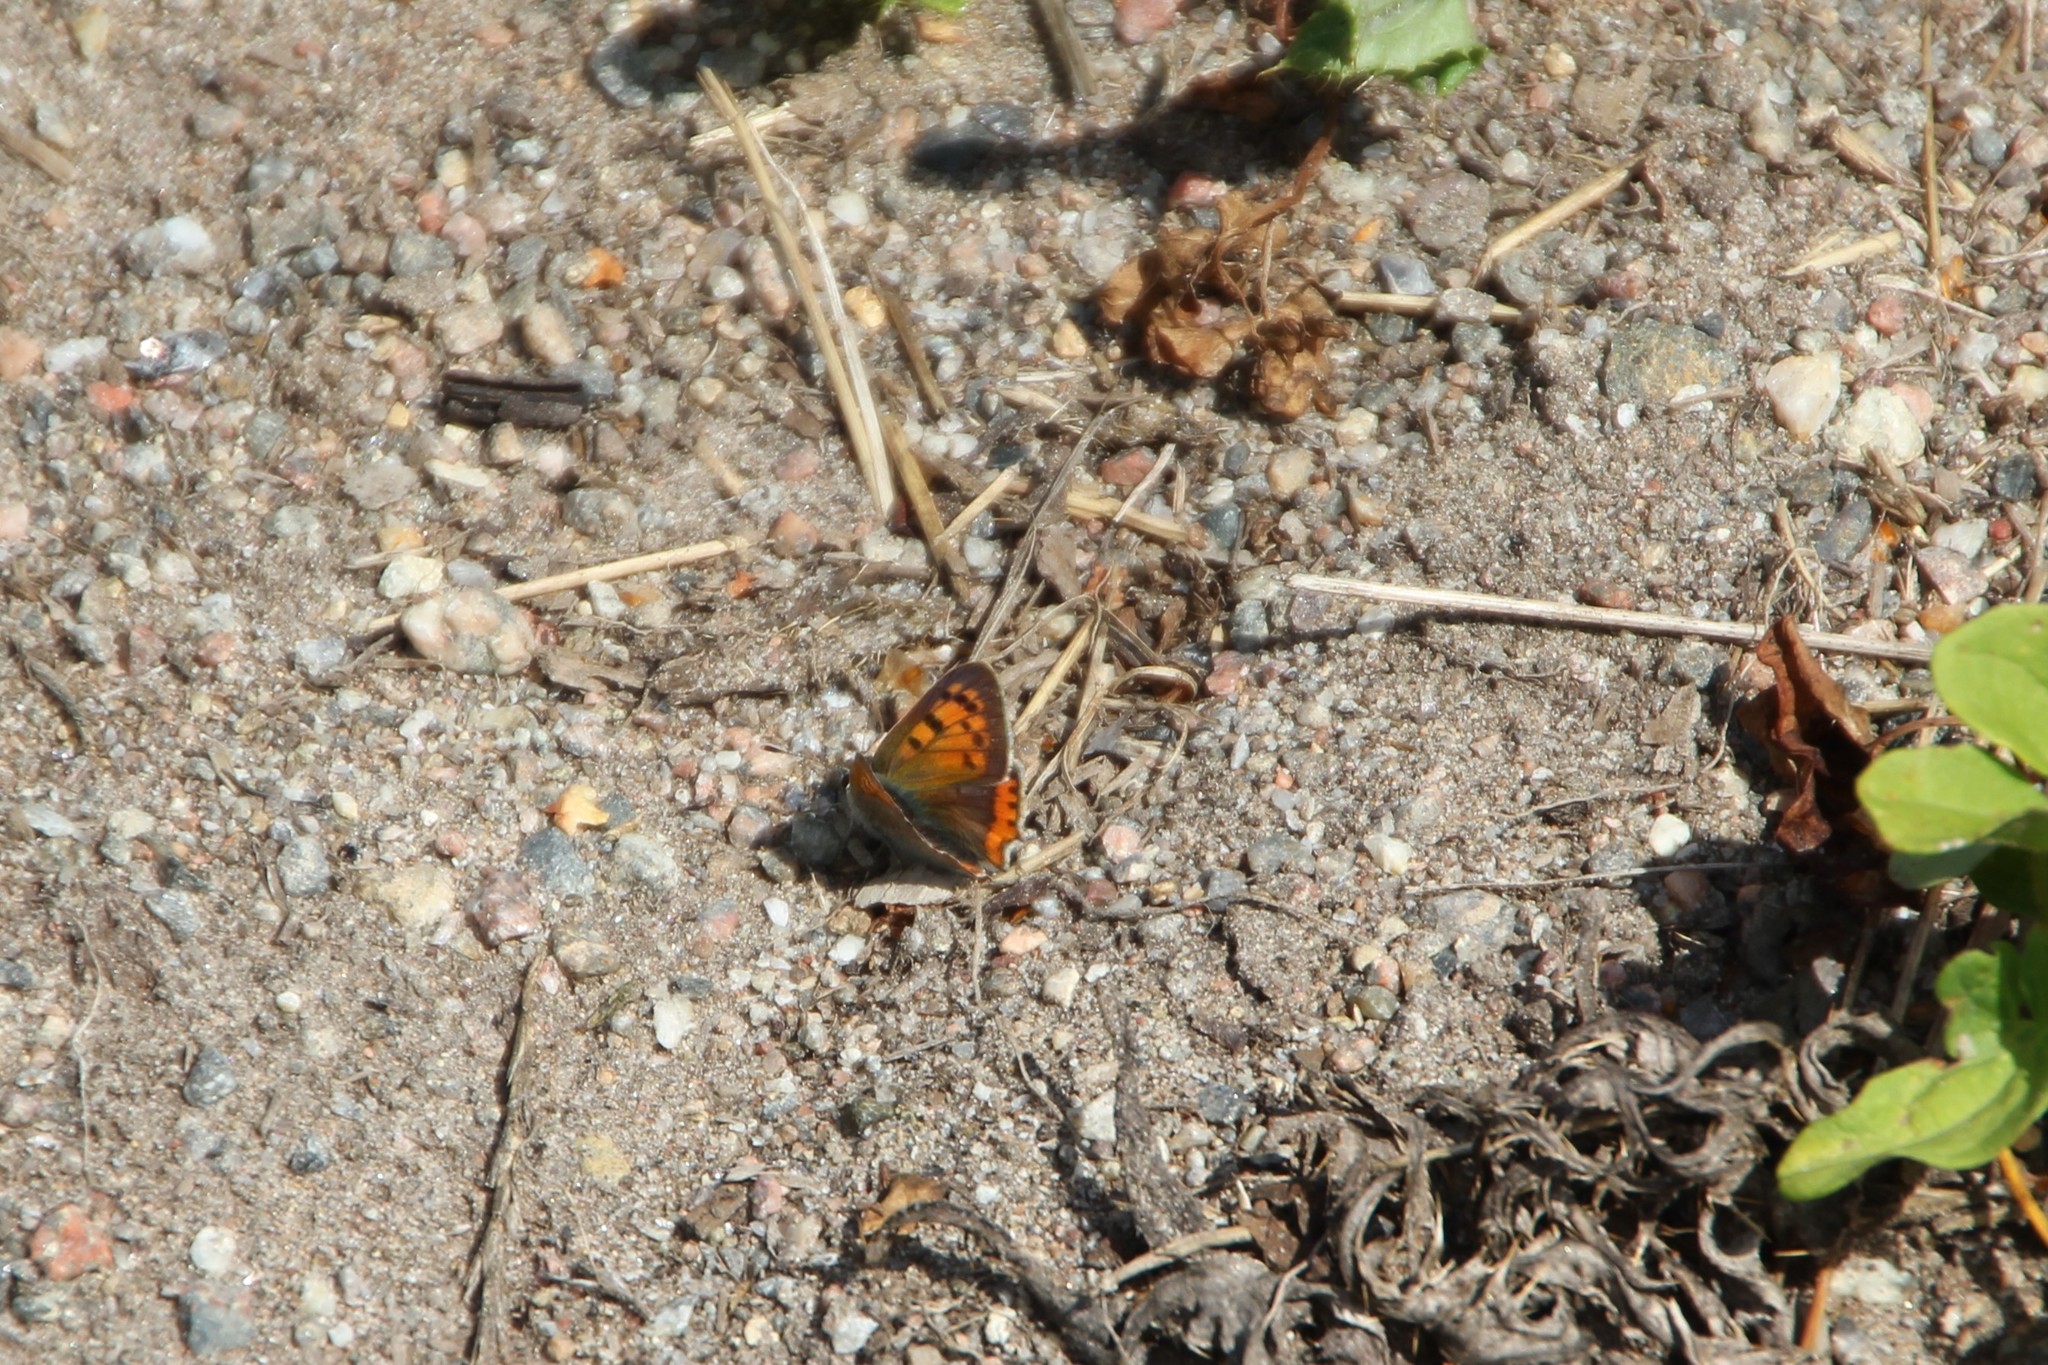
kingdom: Animalia
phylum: Arthropoda
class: Insecta
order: Lepidoptera
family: Lycaenidae
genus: Lycaena
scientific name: Lycaena phlaeas
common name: Small copper
